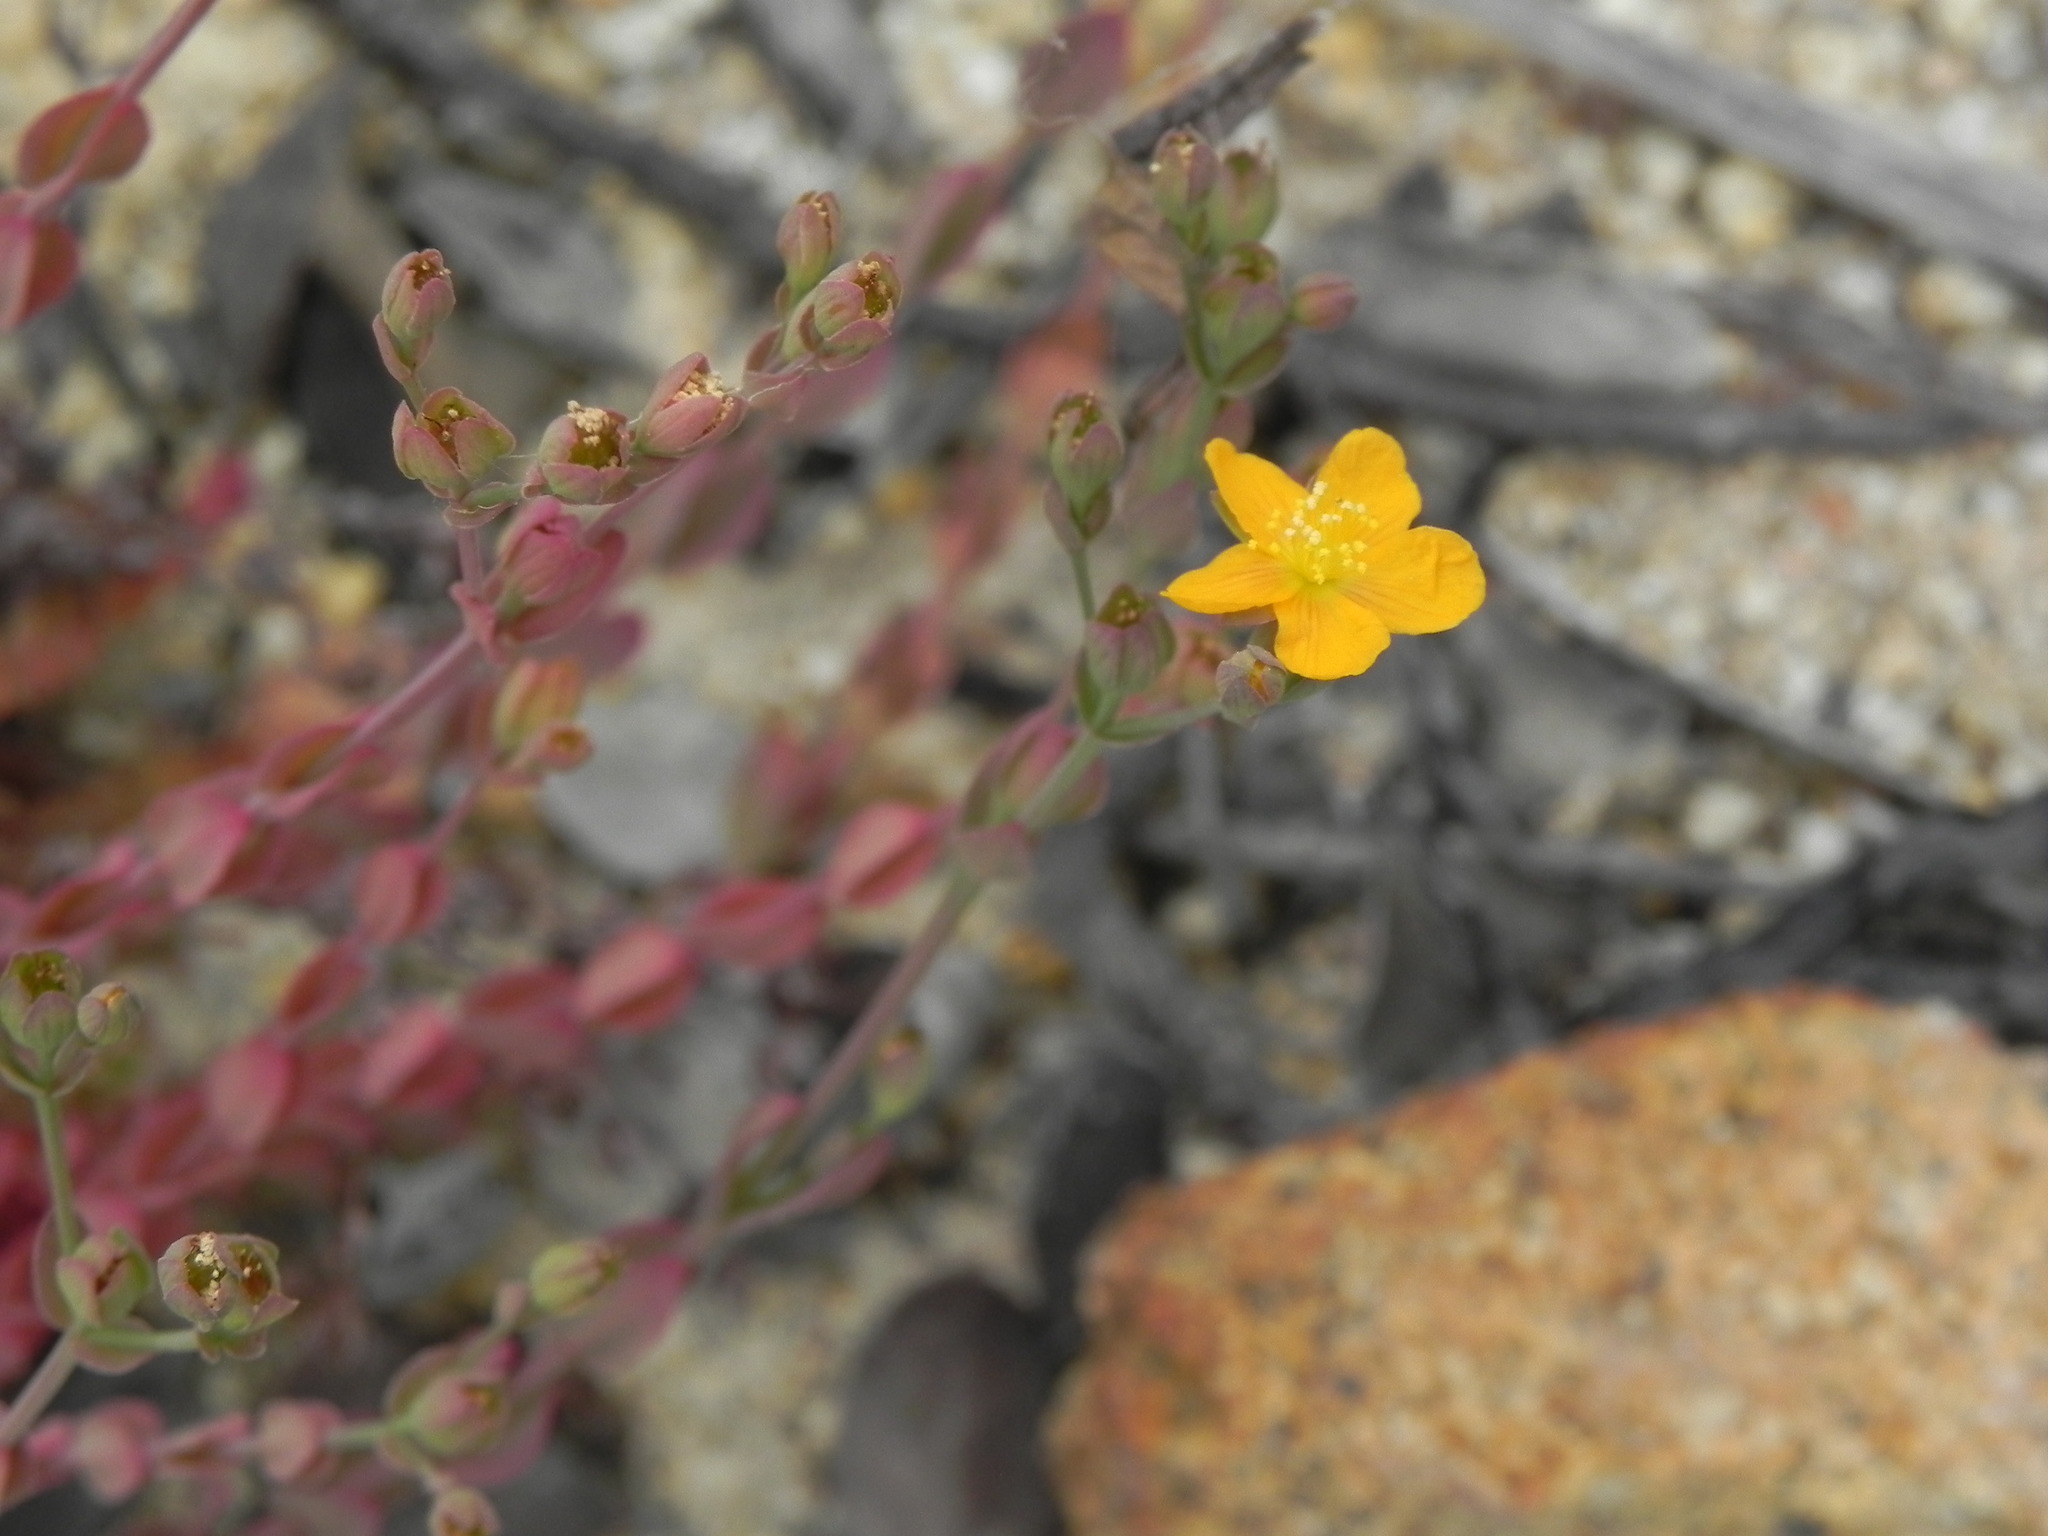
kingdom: Plantae
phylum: Tracheophyta
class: Magnoliopsida
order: Malpighiales
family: Hypericaceae
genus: Hypericum
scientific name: Hypericum anagalloides
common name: Bog st. john's-wort
